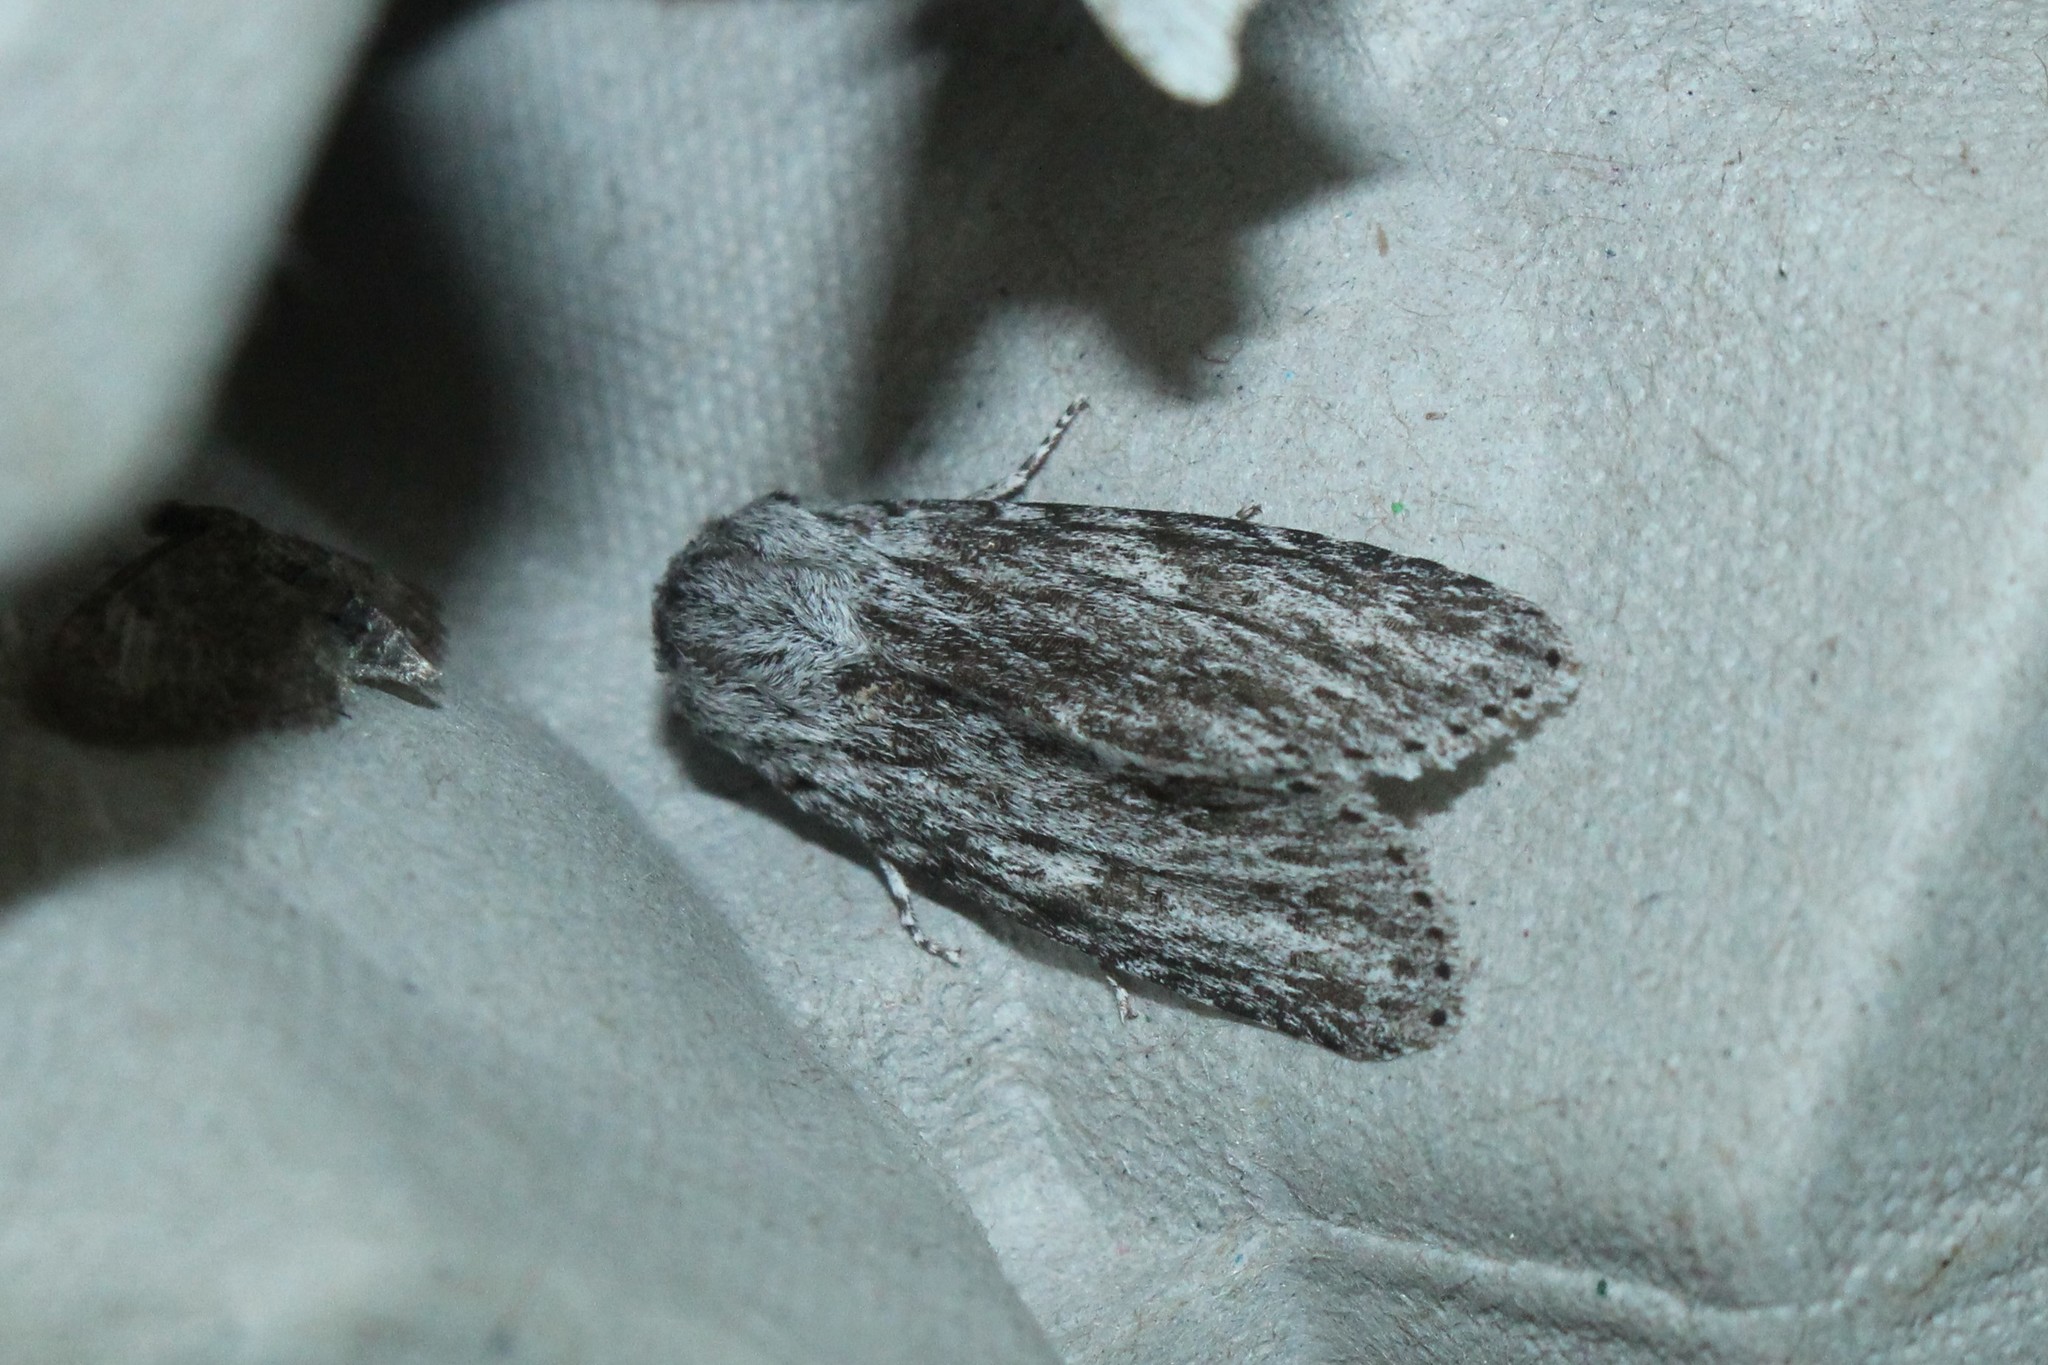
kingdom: Animalia
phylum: Arthropoda
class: Insecta
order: Lepidoptera
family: Noctuidae
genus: Acronicta
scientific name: Acronicta oblinita
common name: Smeared dagger
